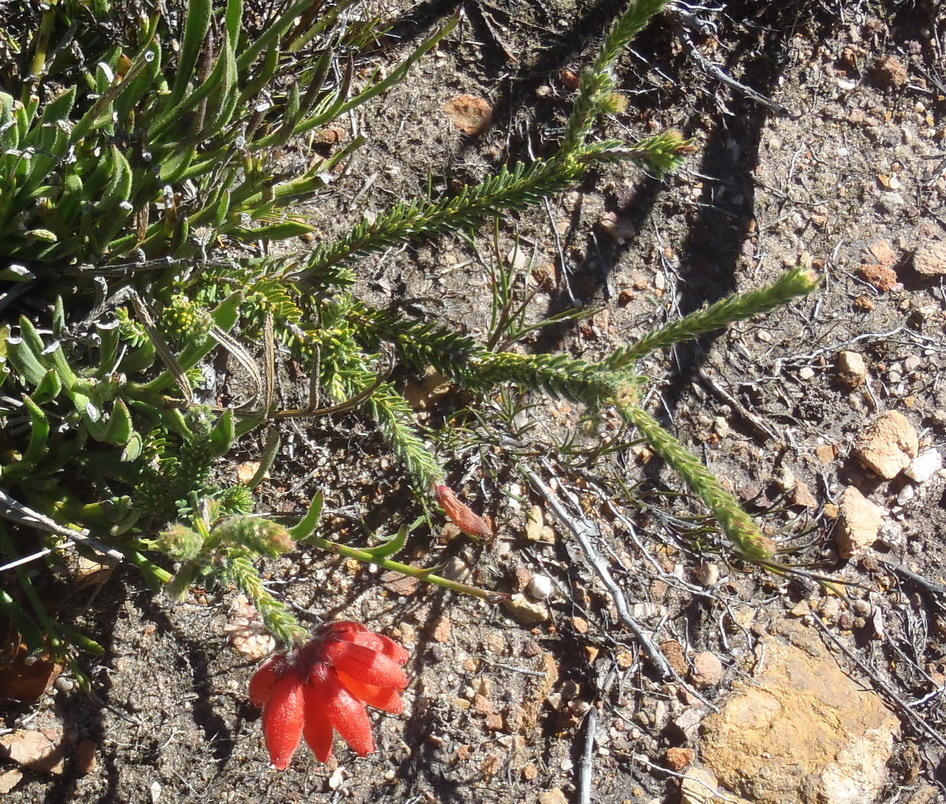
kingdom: Plantae
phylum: Tracheophyta
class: Magnoliopsida
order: Ericales
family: Ericaceae
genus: Erica
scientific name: Erica cerinthoides
